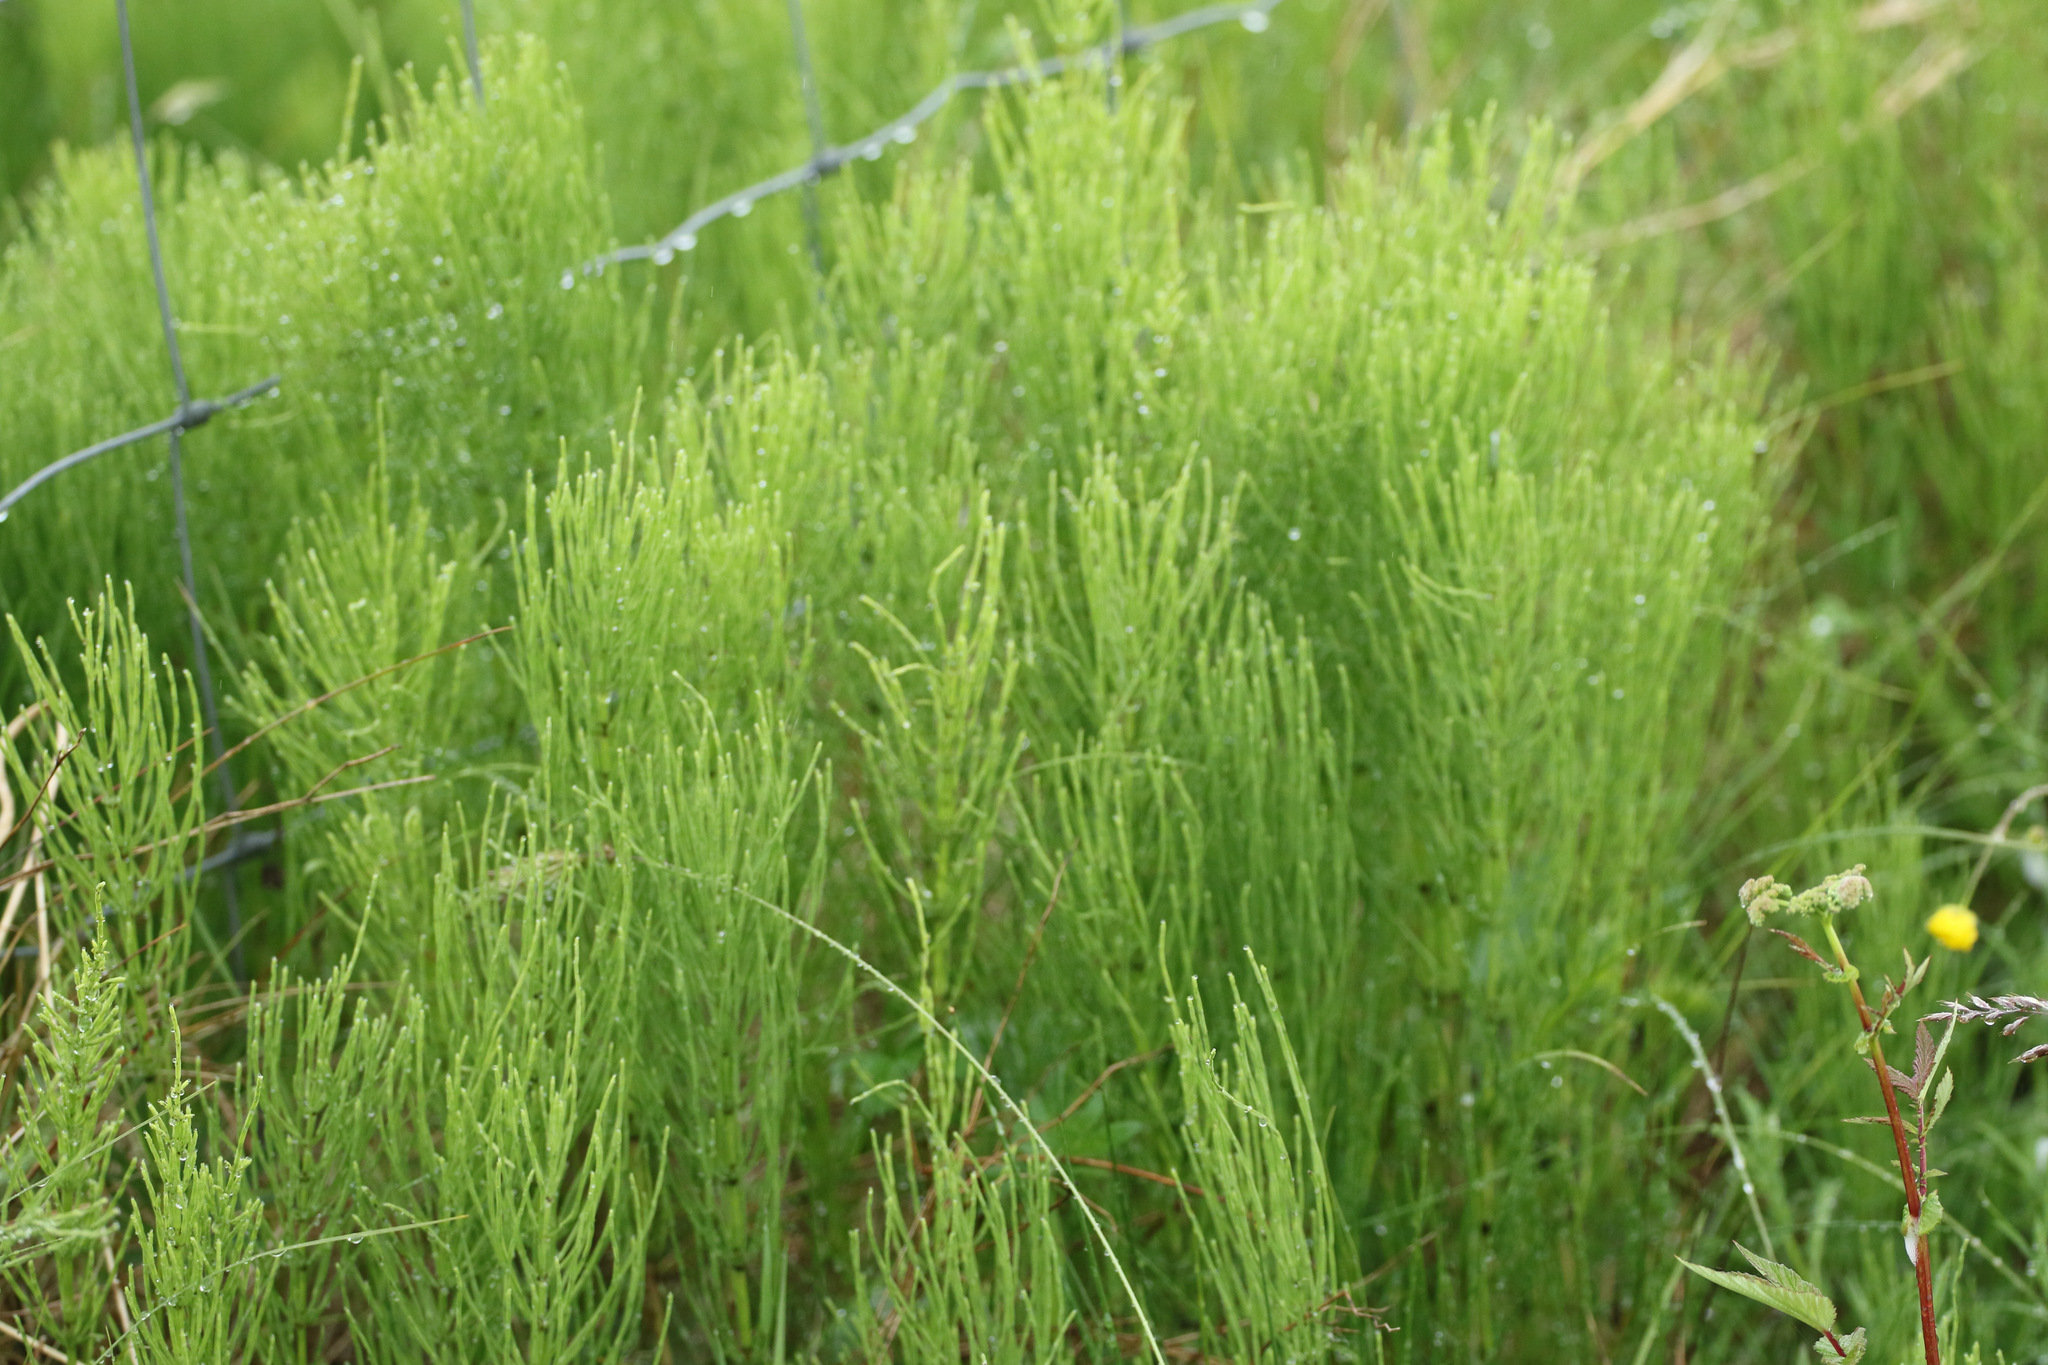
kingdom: Plantae
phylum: Tracheophyta
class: Polypodiopsida
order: Equisetales
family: Equisetaceae
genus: Equisetum
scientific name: Equisetum arvense
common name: Field horsetail
